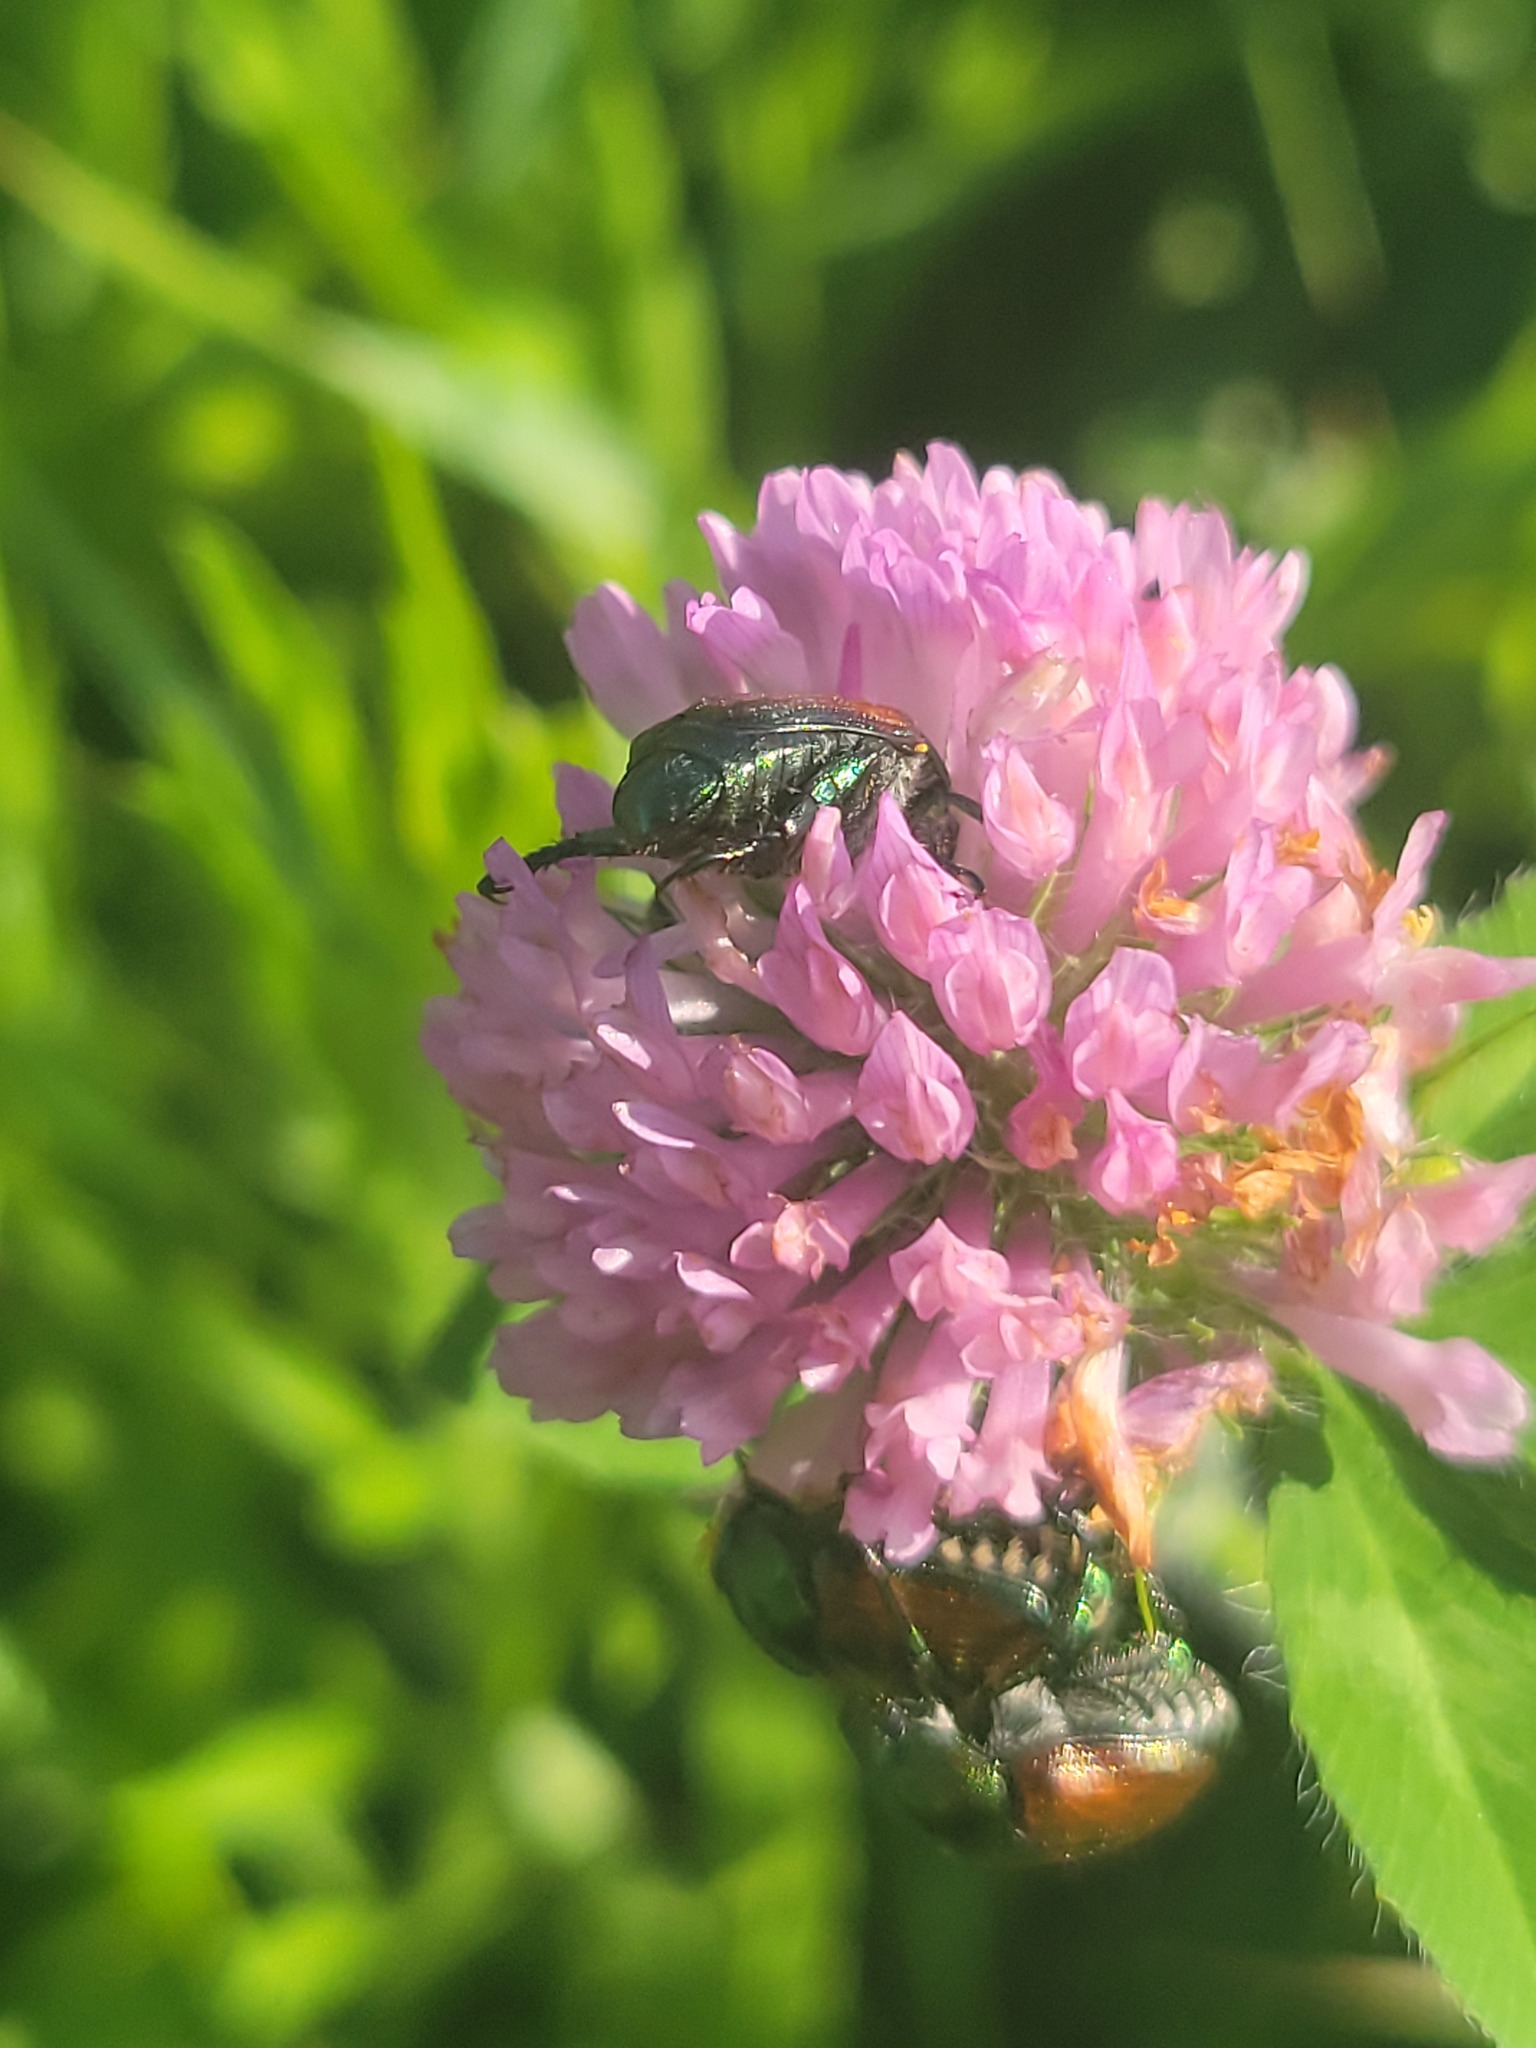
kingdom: Animalia
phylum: Arthropoda
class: Insecta
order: Coleoptera
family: Scarabaeidae
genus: Popillia
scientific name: Popillia japonica
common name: Japanese beetle
